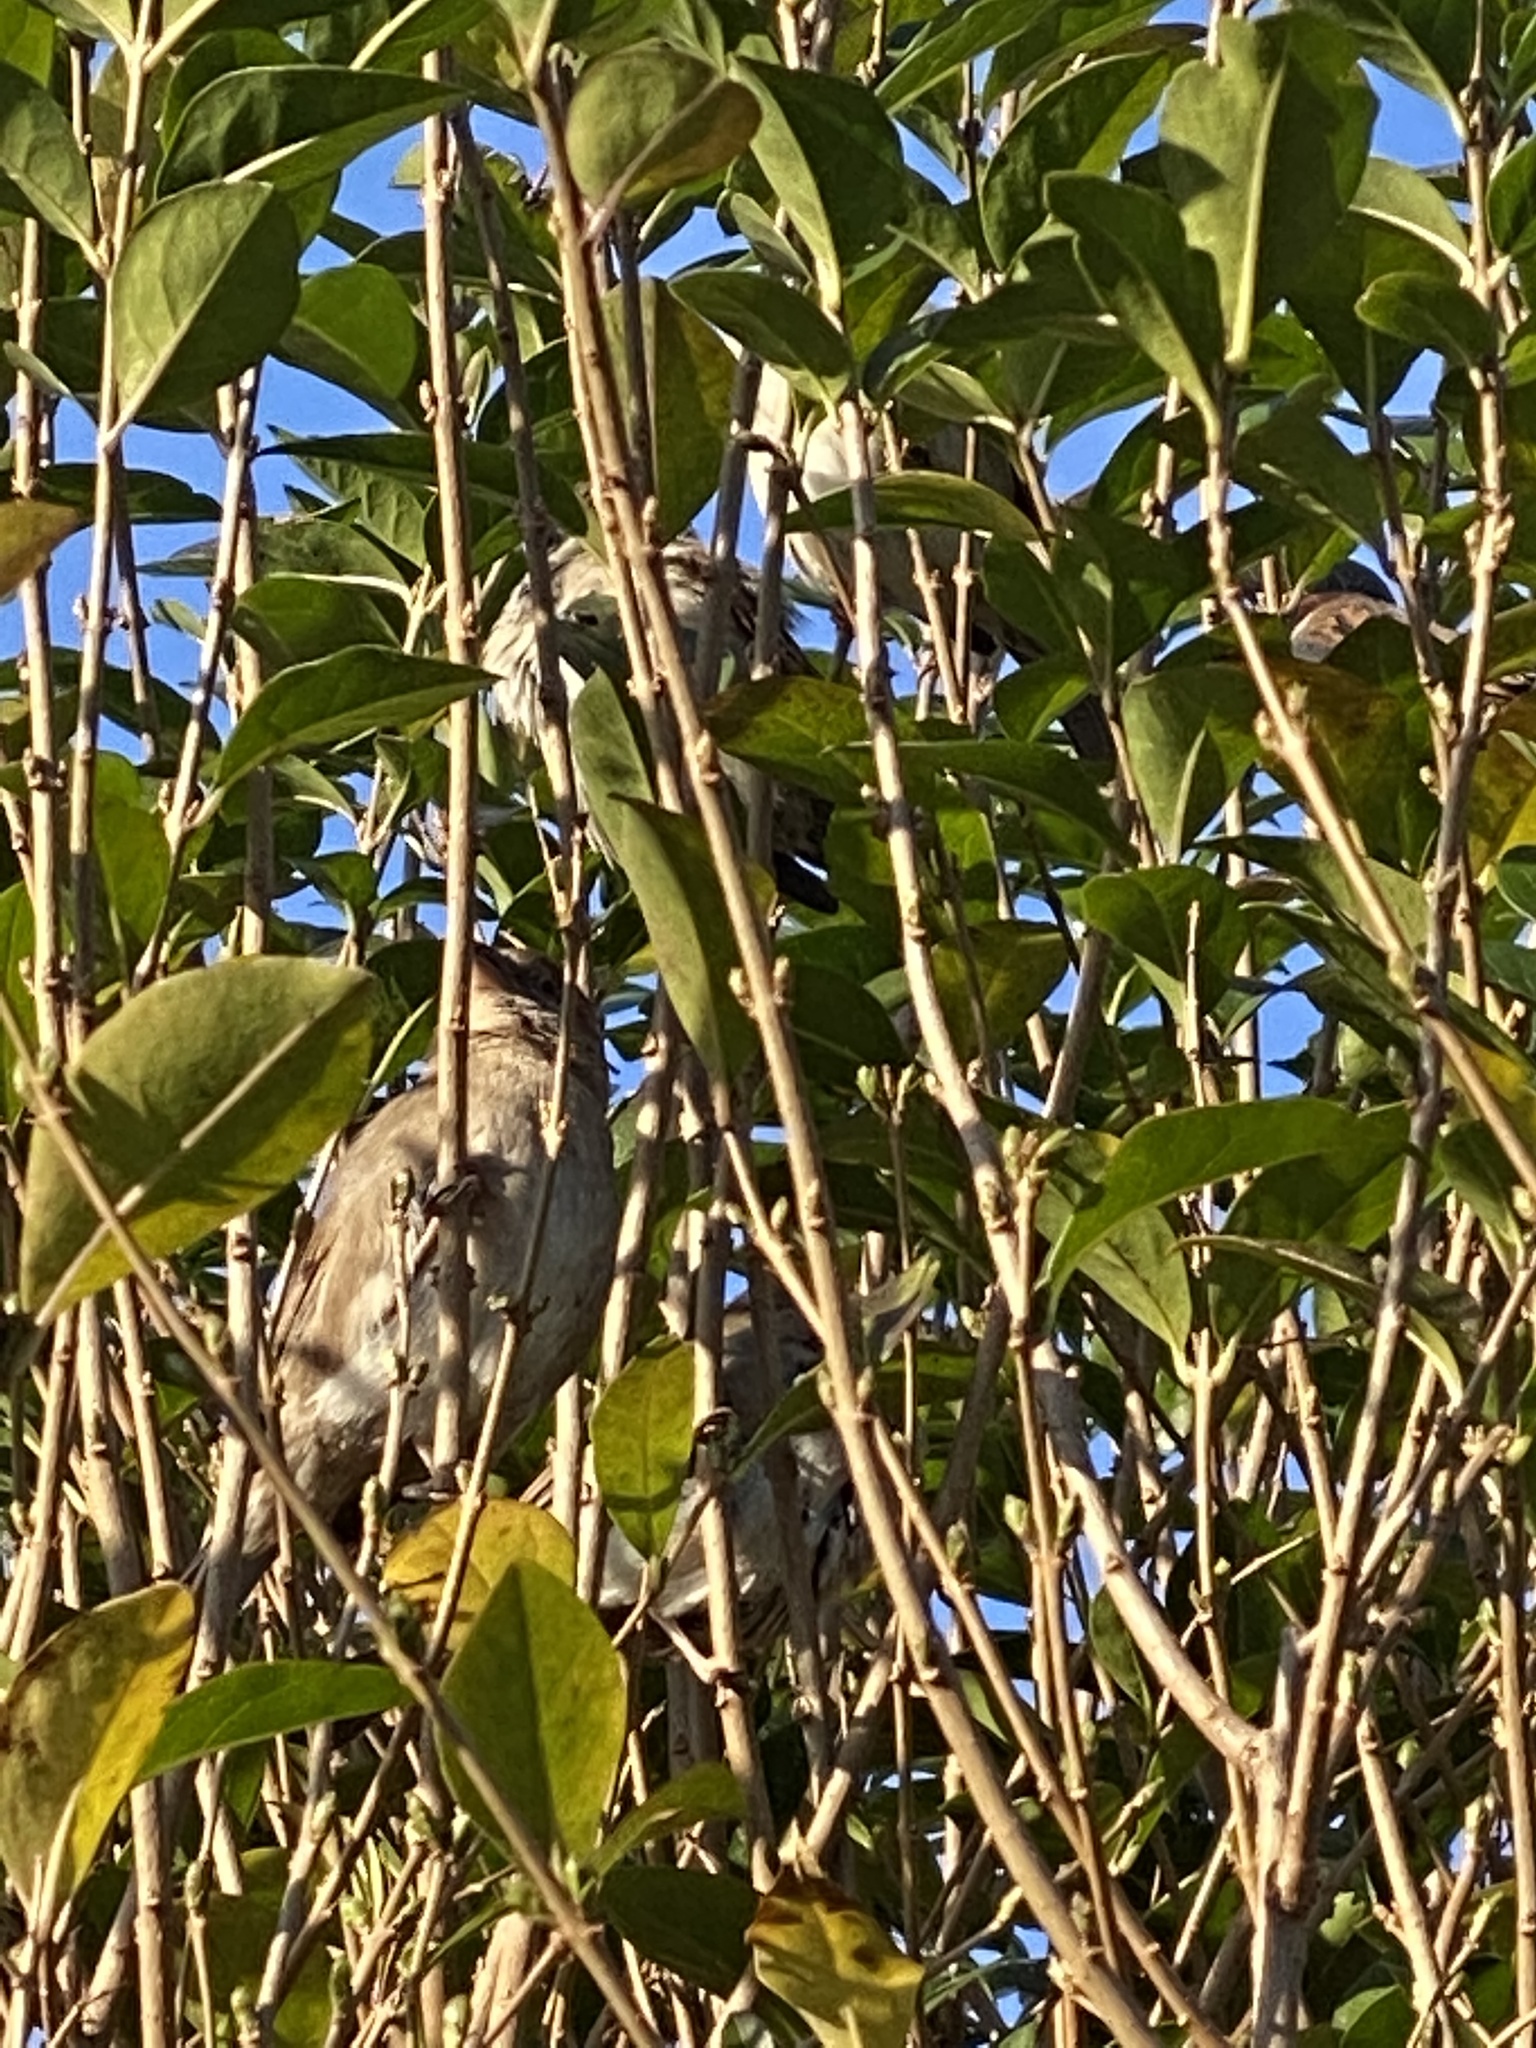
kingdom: Animalia
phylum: Chordata
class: Aves
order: Passeriformes
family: Passeridae
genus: Passer
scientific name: Passer domesticus
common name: House sparrow
